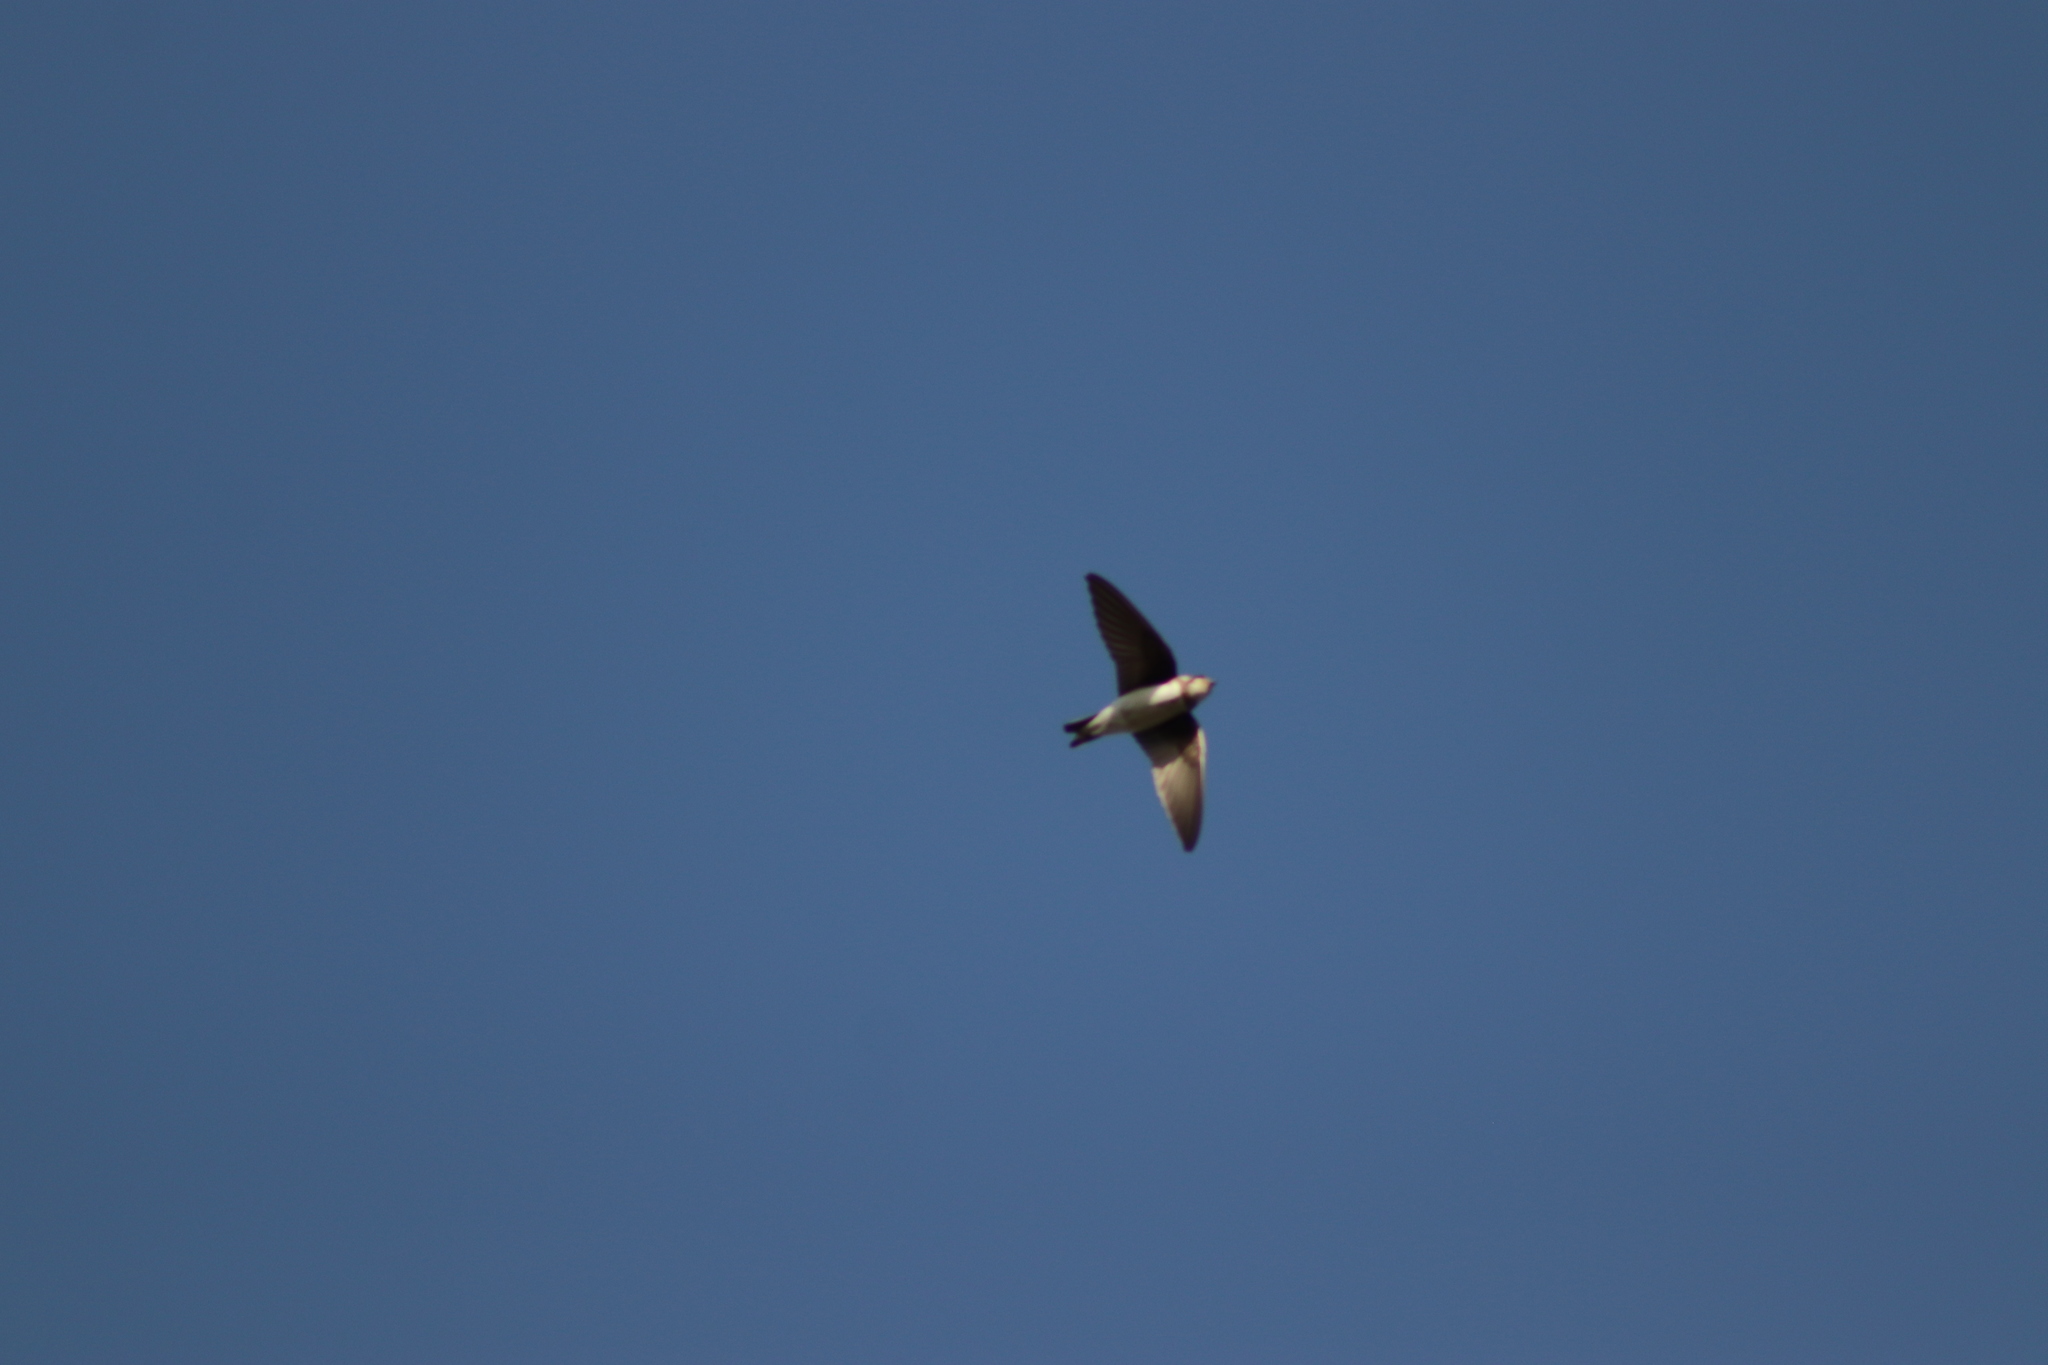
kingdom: Animalia
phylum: Chordata
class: Aves
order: Passeriformes
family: Hirundinidae
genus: Riparia
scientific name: Riparia riparia
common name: Sand martin
